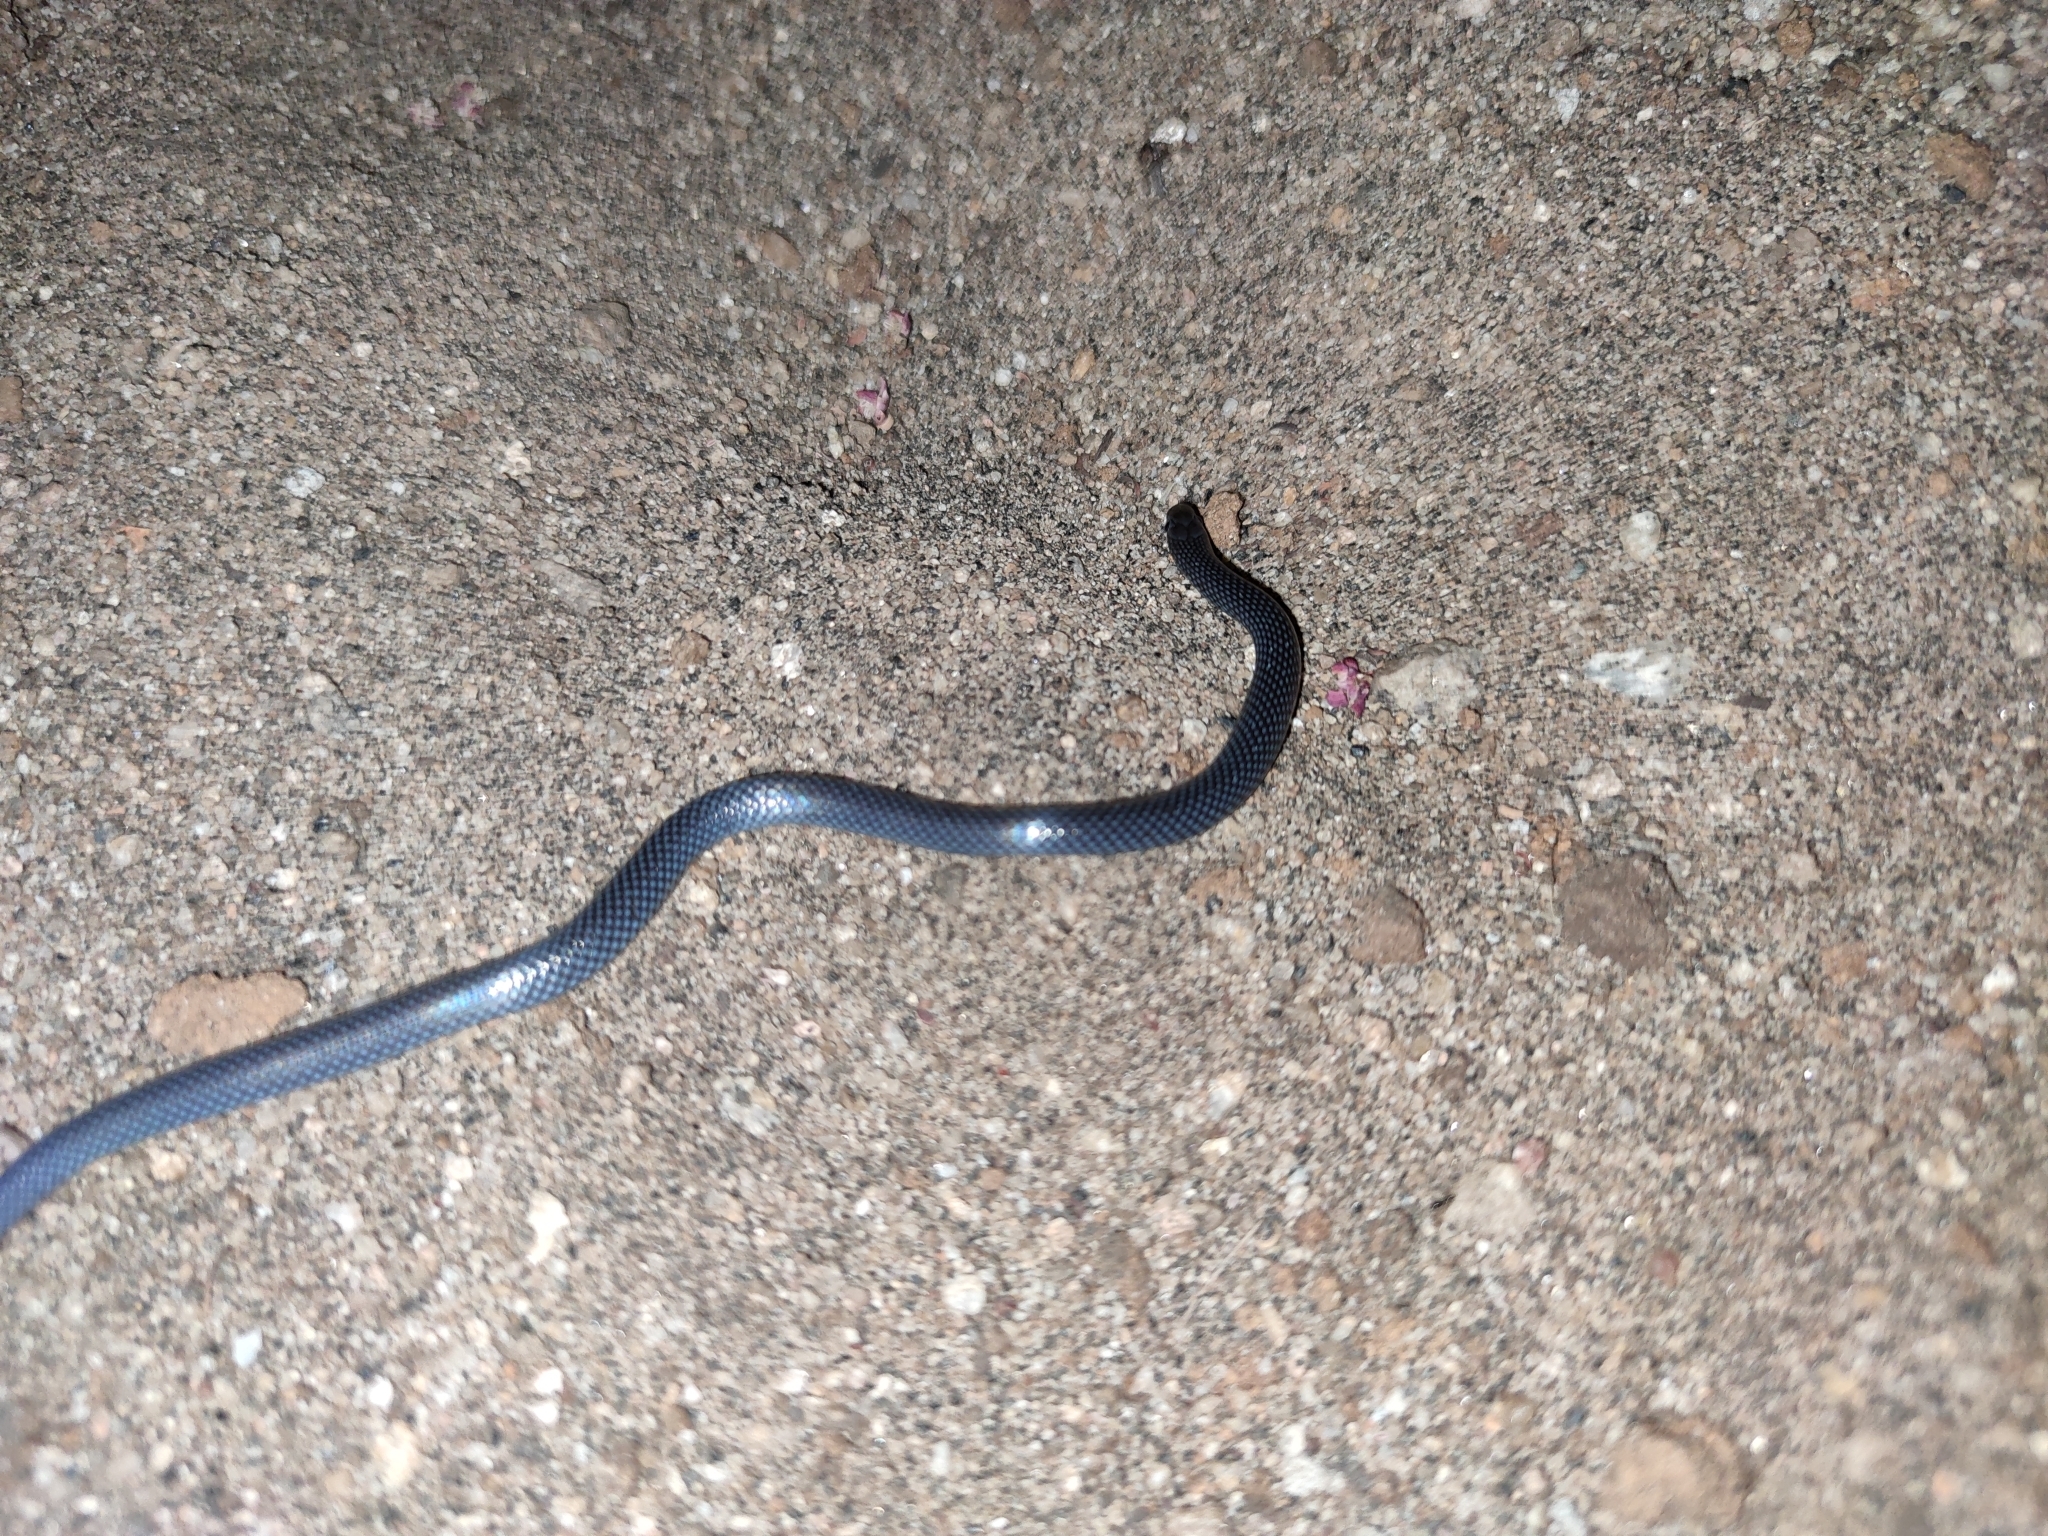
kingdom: Animalia
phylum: Chordata
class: Squamata
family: Prosymnidae
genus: Prosymna
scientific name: Prosymna stuhlmanni
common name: East african shovel-snout snake
